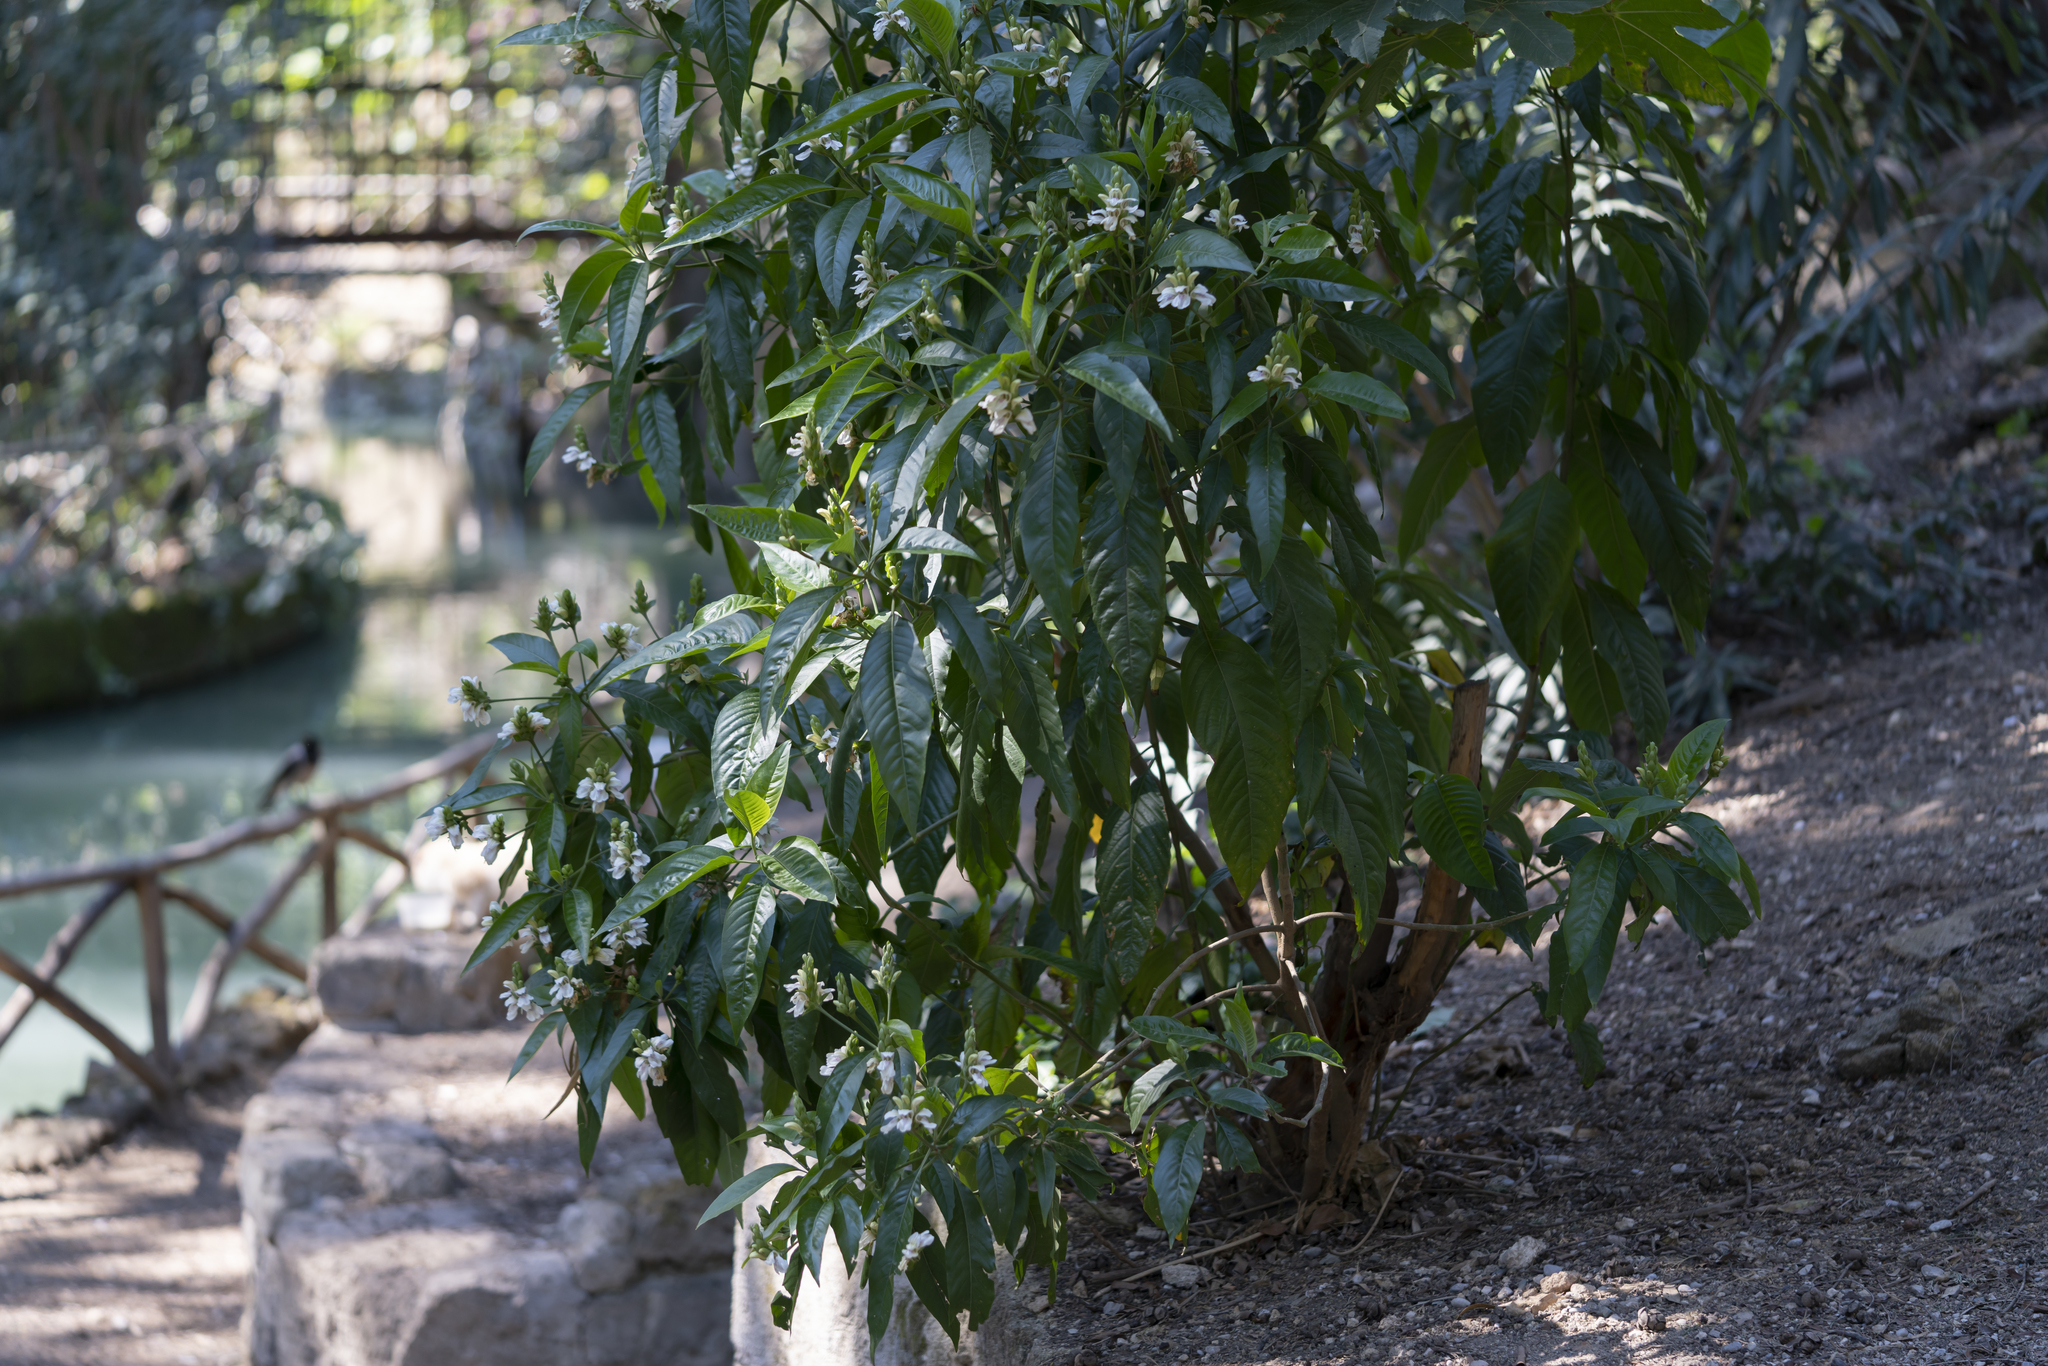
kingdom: Plantae
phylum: Tracheophyta
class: Magnoliopsida
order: Lamiales
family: Acanthaceae
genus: Justicia
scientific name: Justicia adhatoda
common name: Malabar nut
